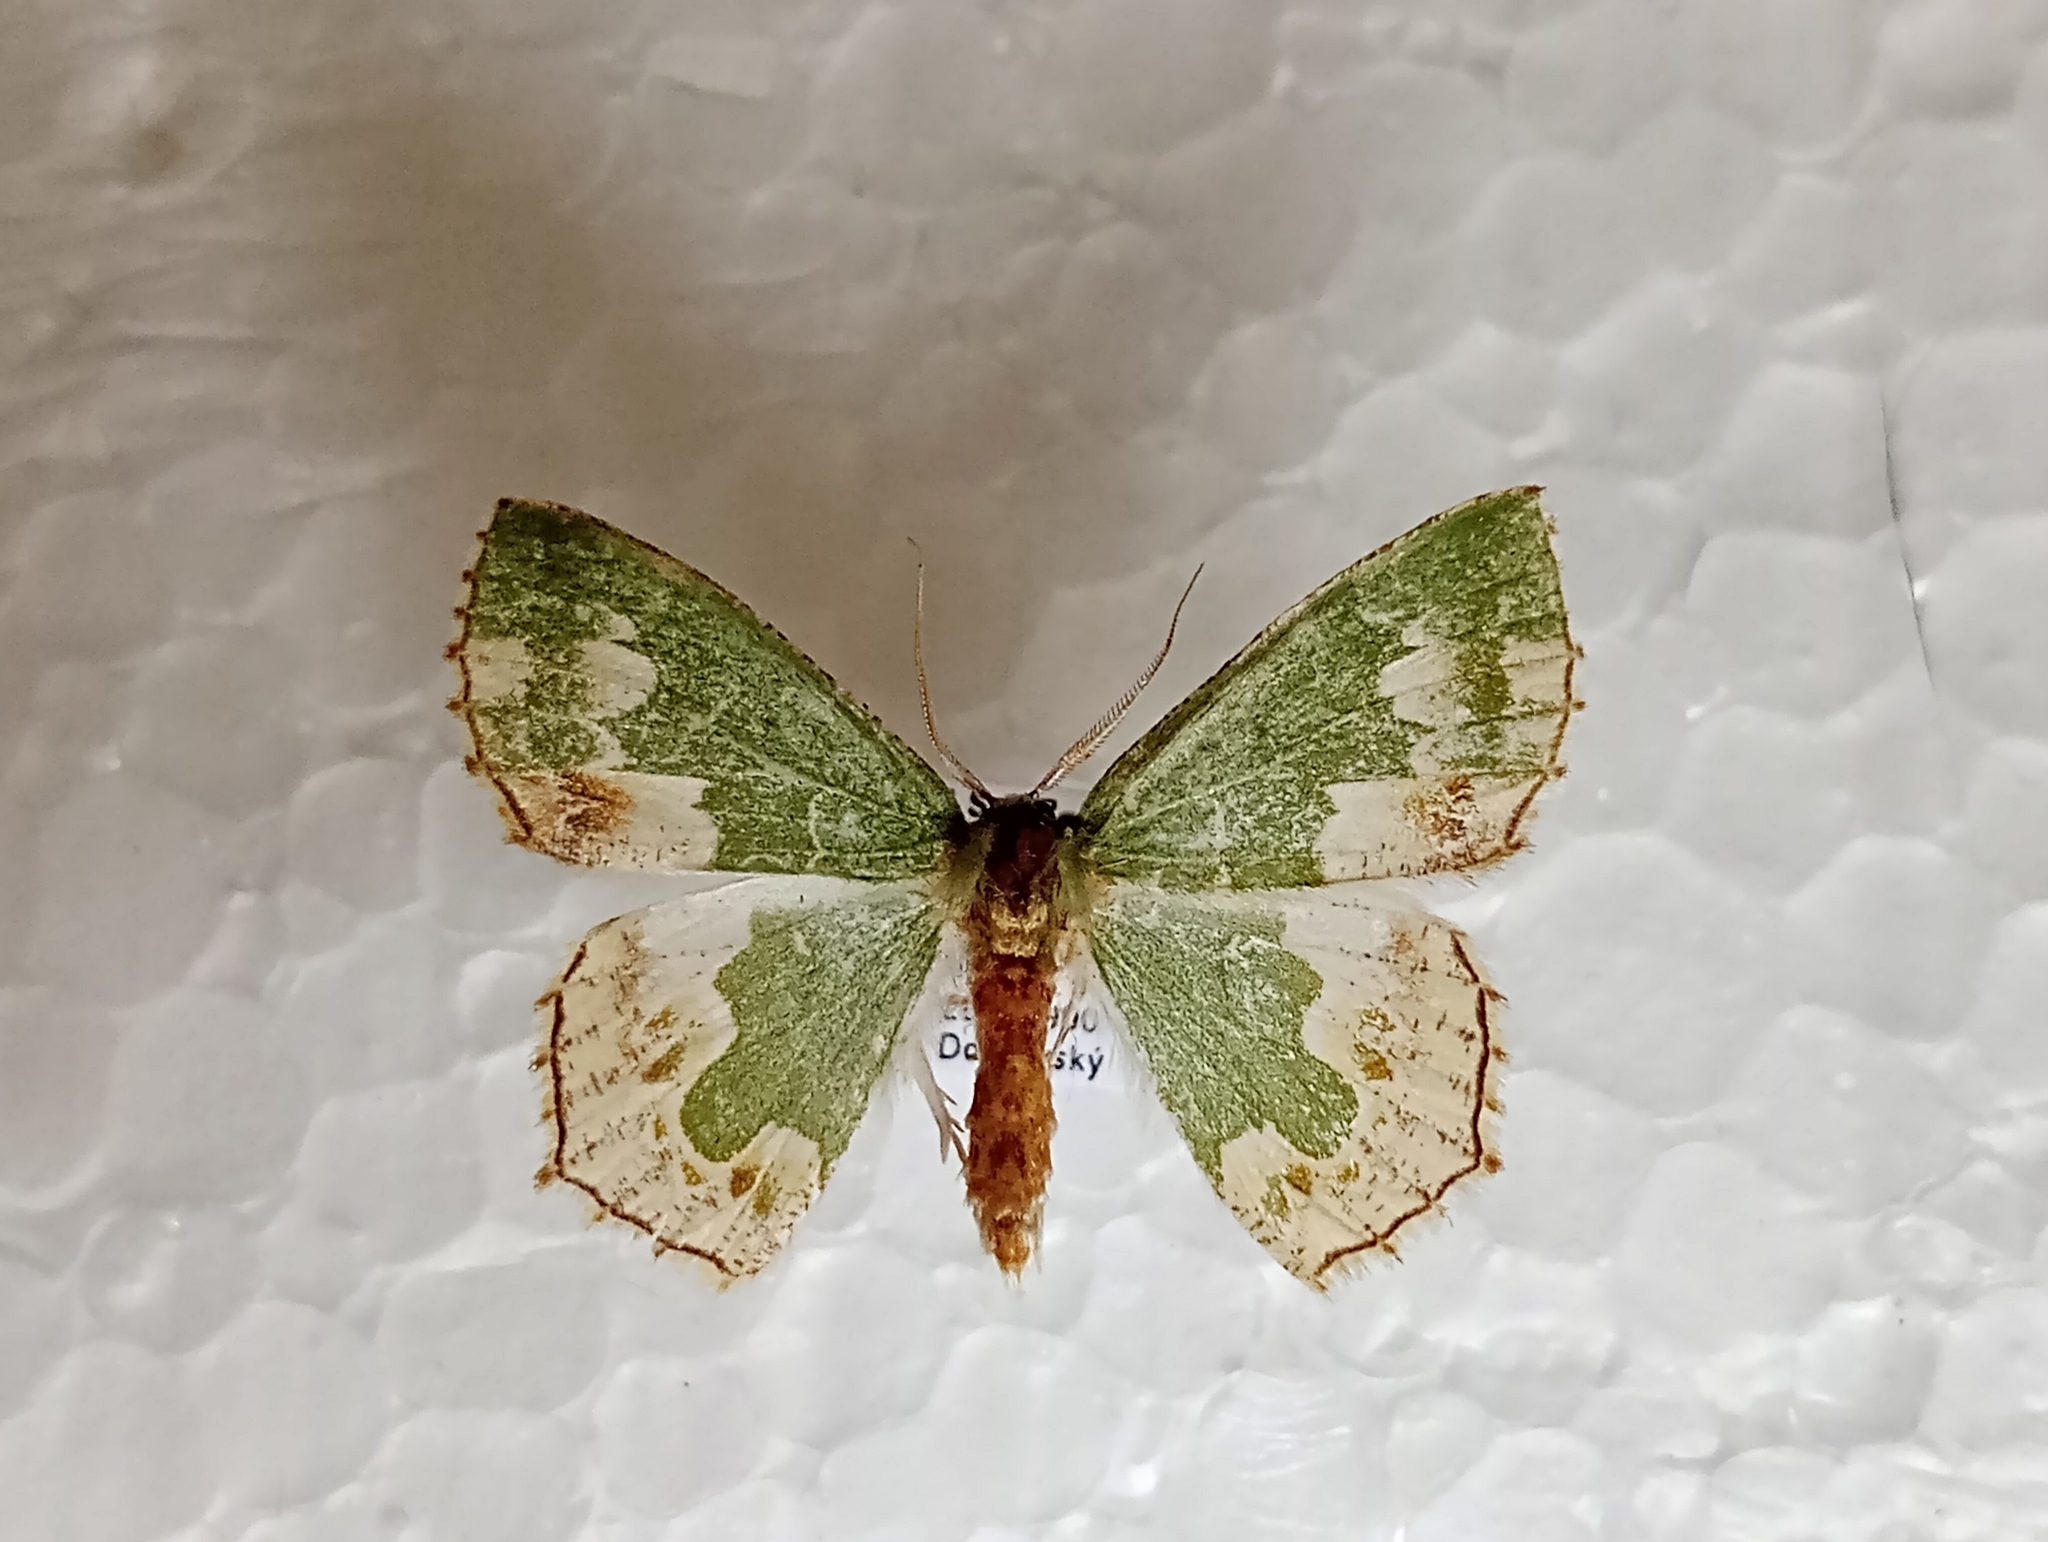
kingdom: Animalia
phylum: Arthropoda
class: Insecta
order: Lepidoptera
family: Geometridae
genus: Eucyclodes
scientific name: Eucyclodes difficta
